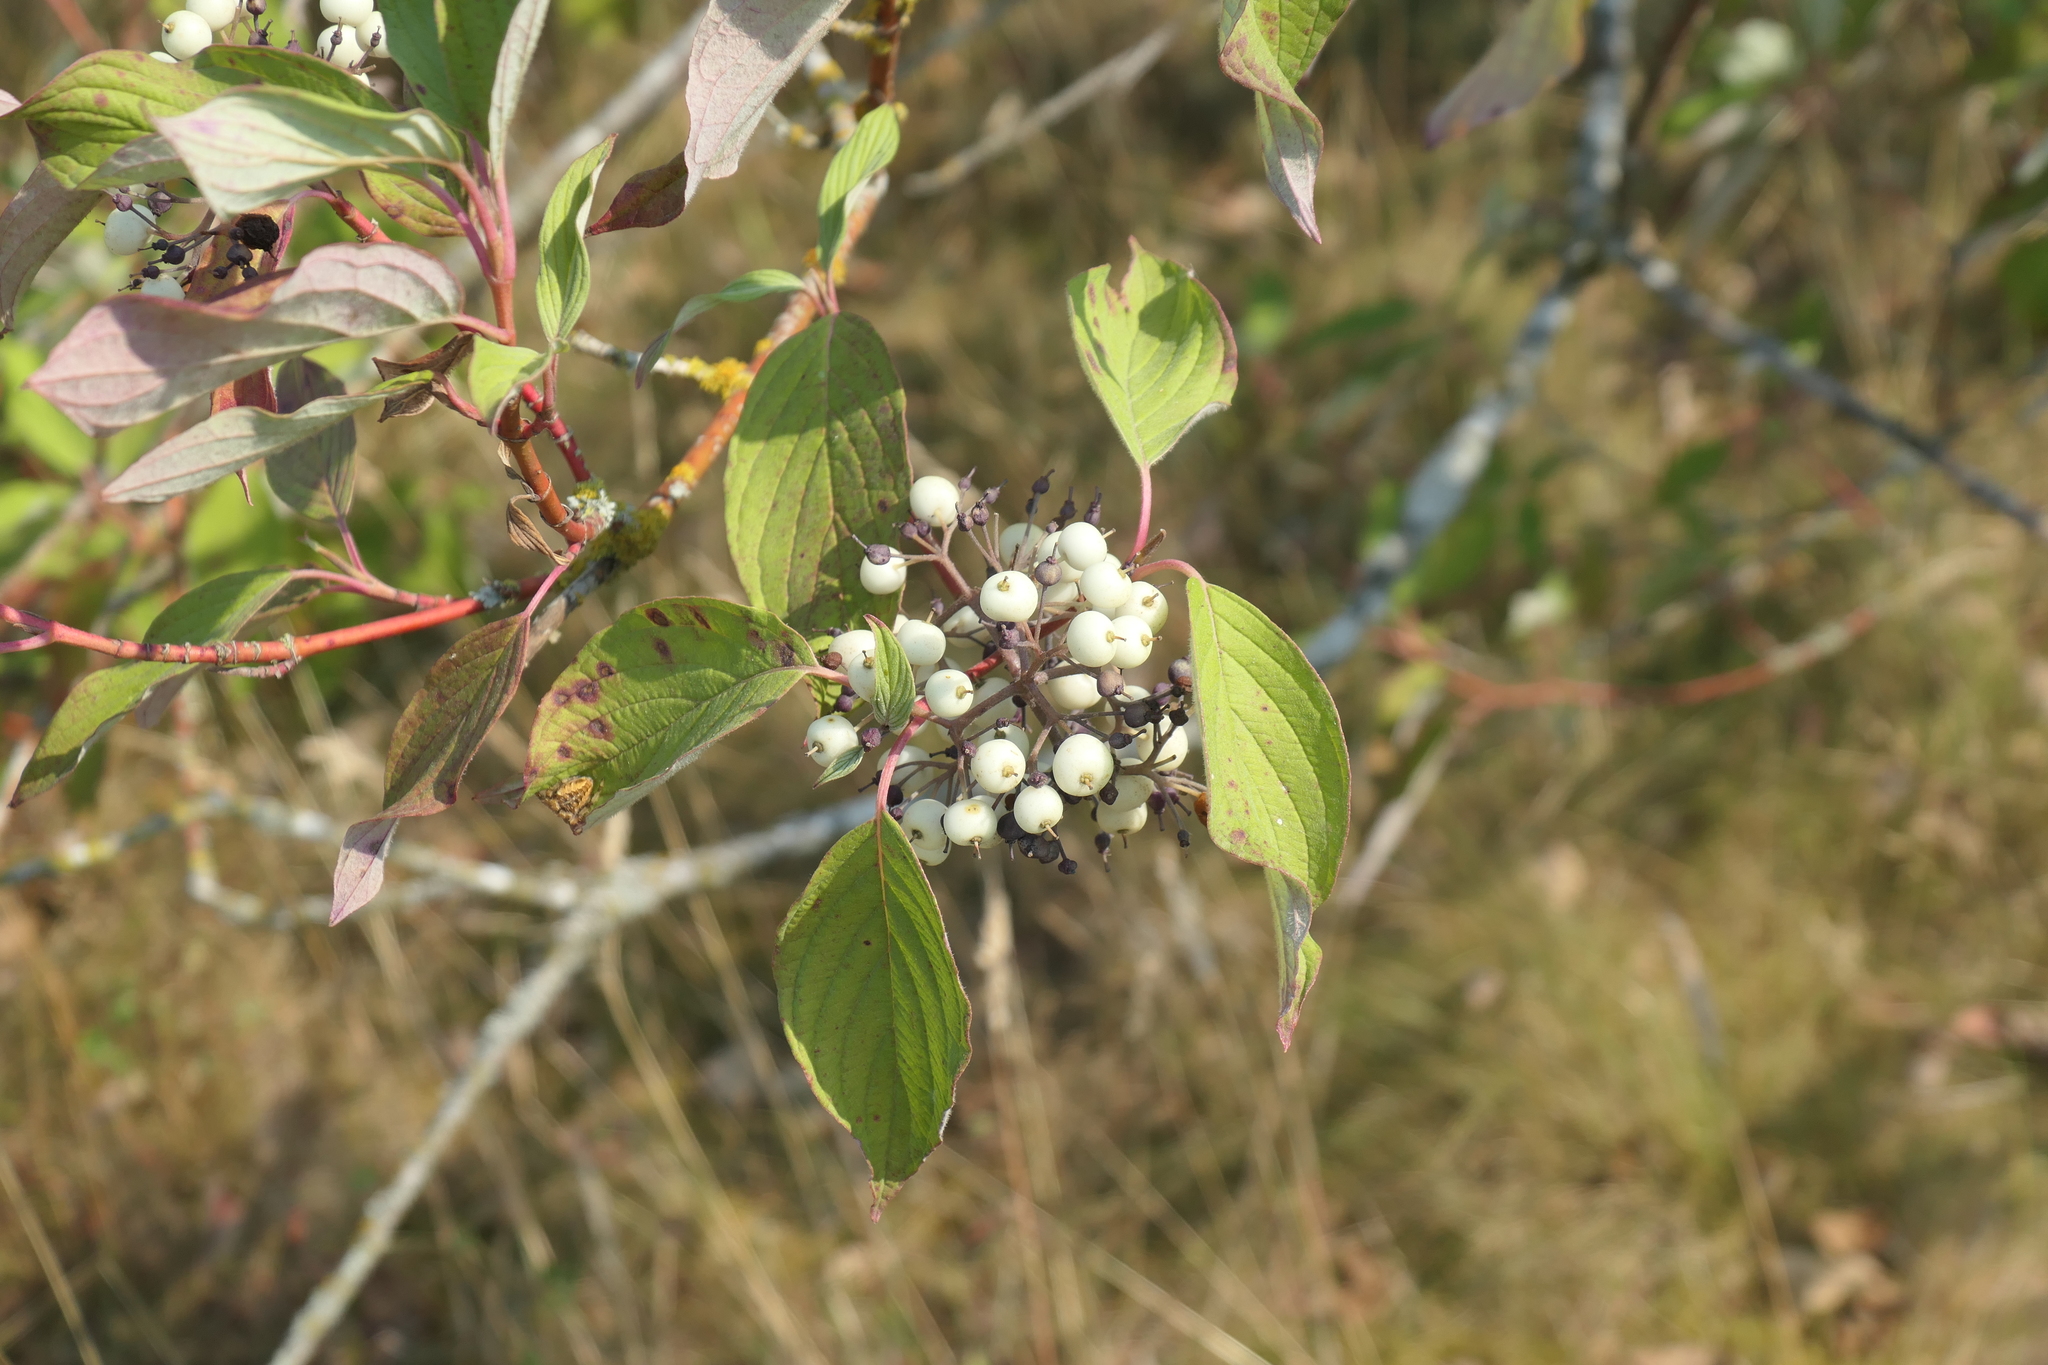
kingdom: Plantae
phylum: Tracheophyta
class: Magnoliopsida
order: Cornales
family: Cornaceae
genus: Cornus
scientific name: Cornus sericea
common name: Red-osier dogwood
